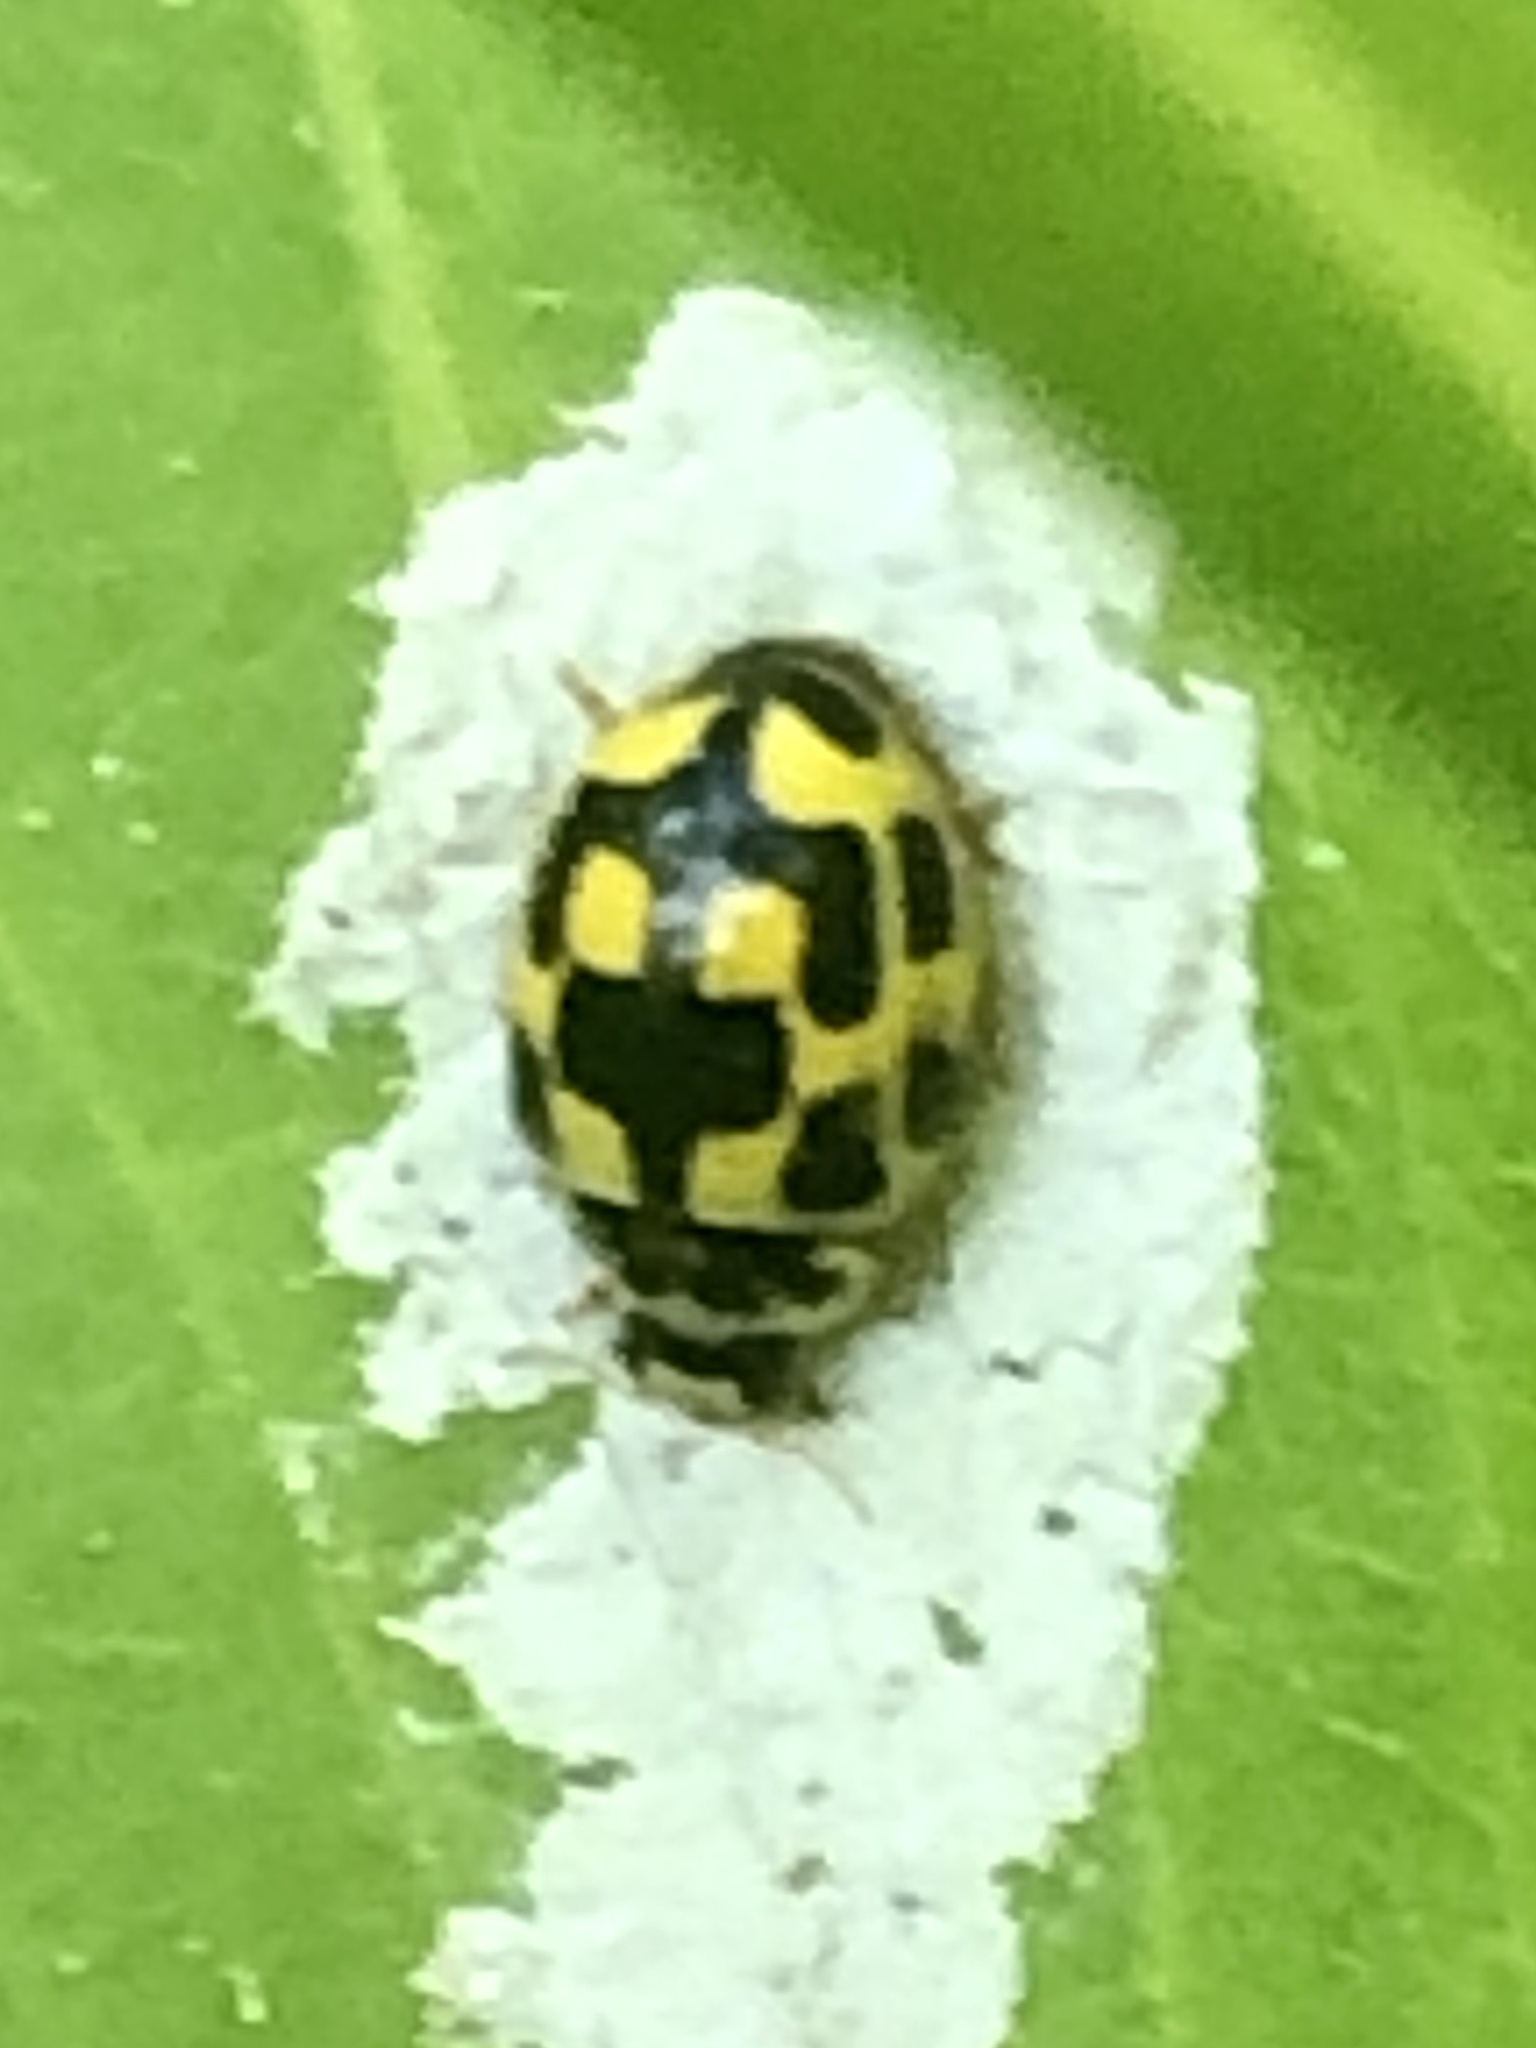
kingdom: Animalia
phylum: Arthropoda
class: Insecta
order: Coleoptera
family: Coccinellidae
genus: Propylaea
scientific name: Propylaea quatuordecimpunctata
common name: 14-spotted ladybird beetle
